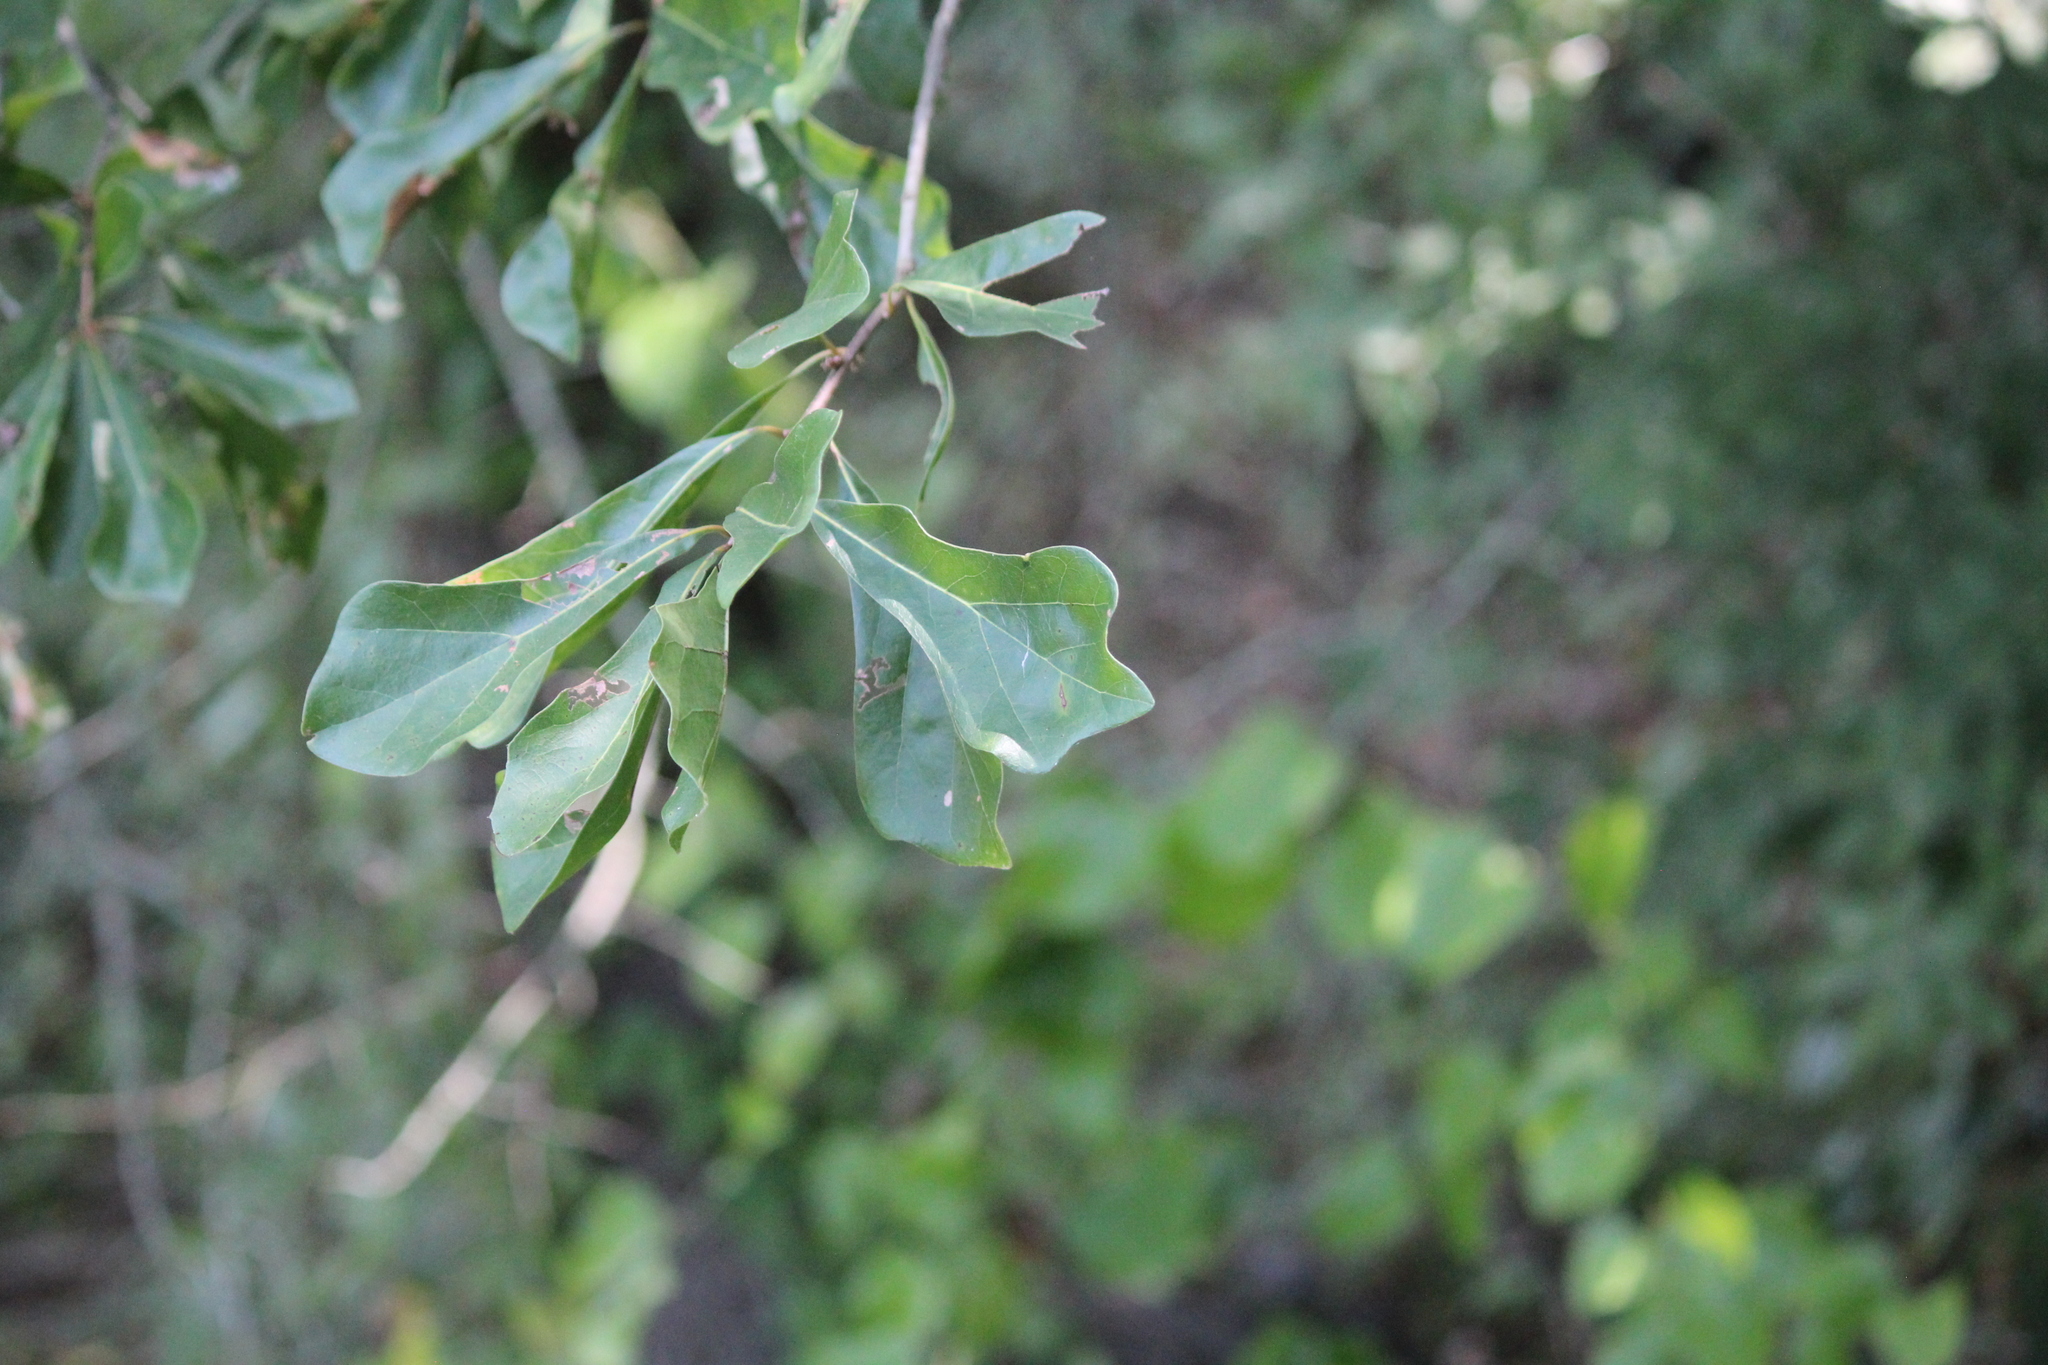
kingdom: Plantae
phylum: Tracheophyta
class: Magnoliopsida
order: Fagales
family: Fagaceae
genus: Quercus
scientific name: Quercus nigra
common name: Water oak
